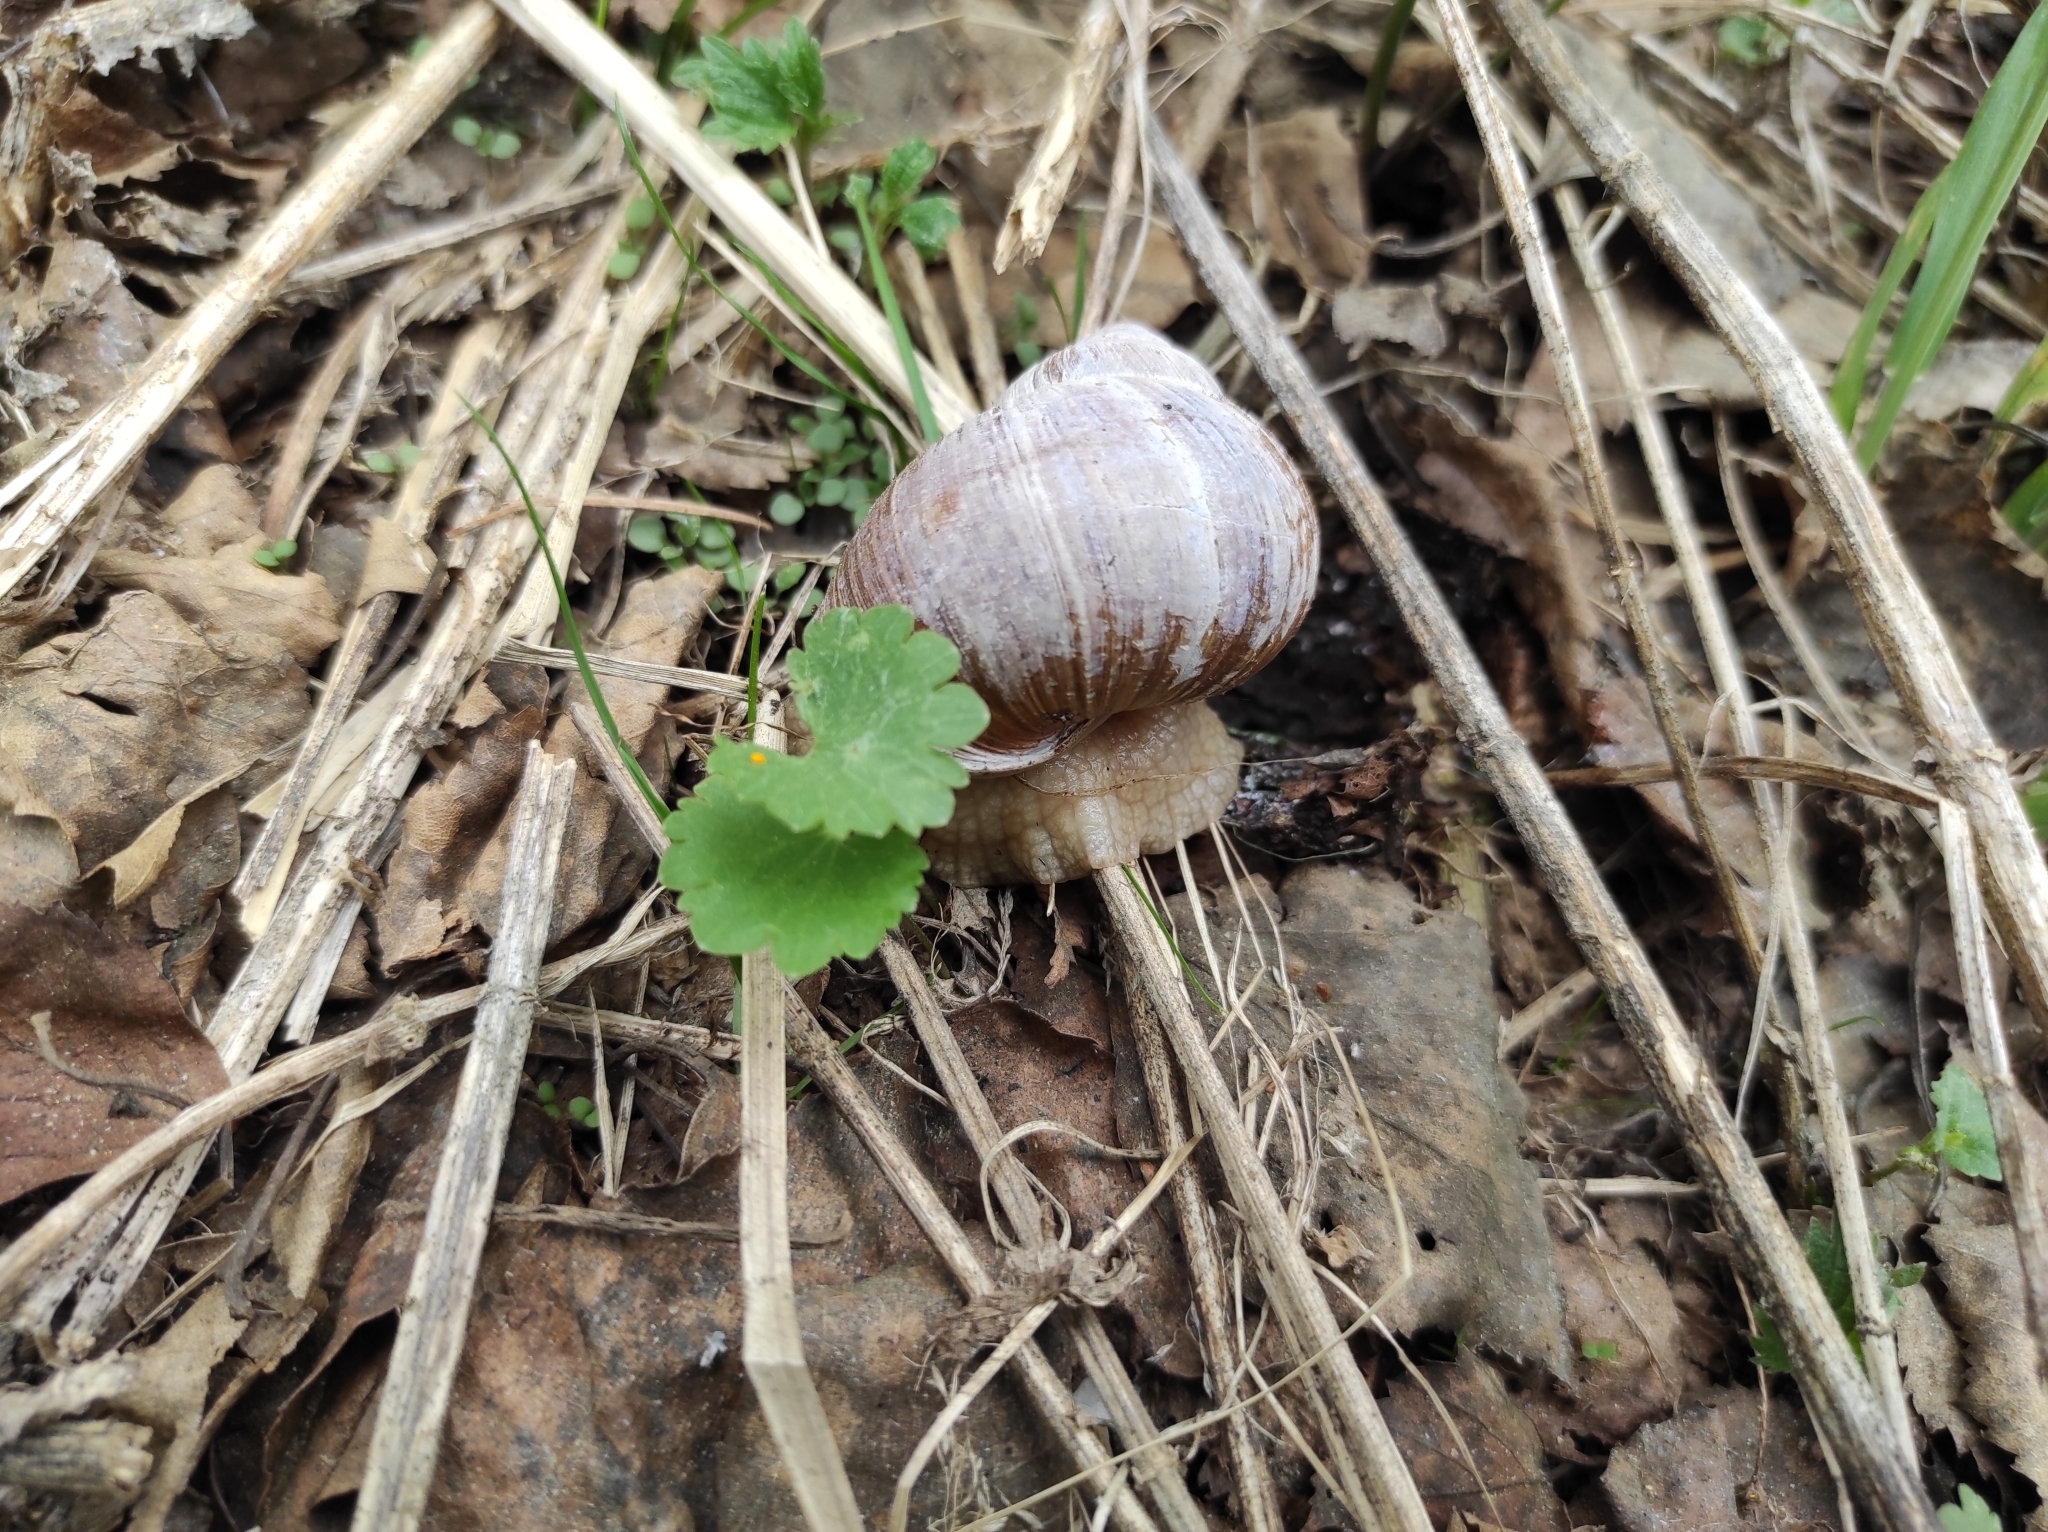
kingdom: Animalia
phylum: Mollusca
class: Gastropoda
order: Stylommatophora
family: Helicidae
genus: Helix
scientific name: Helix pomatia
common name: Roman snail
